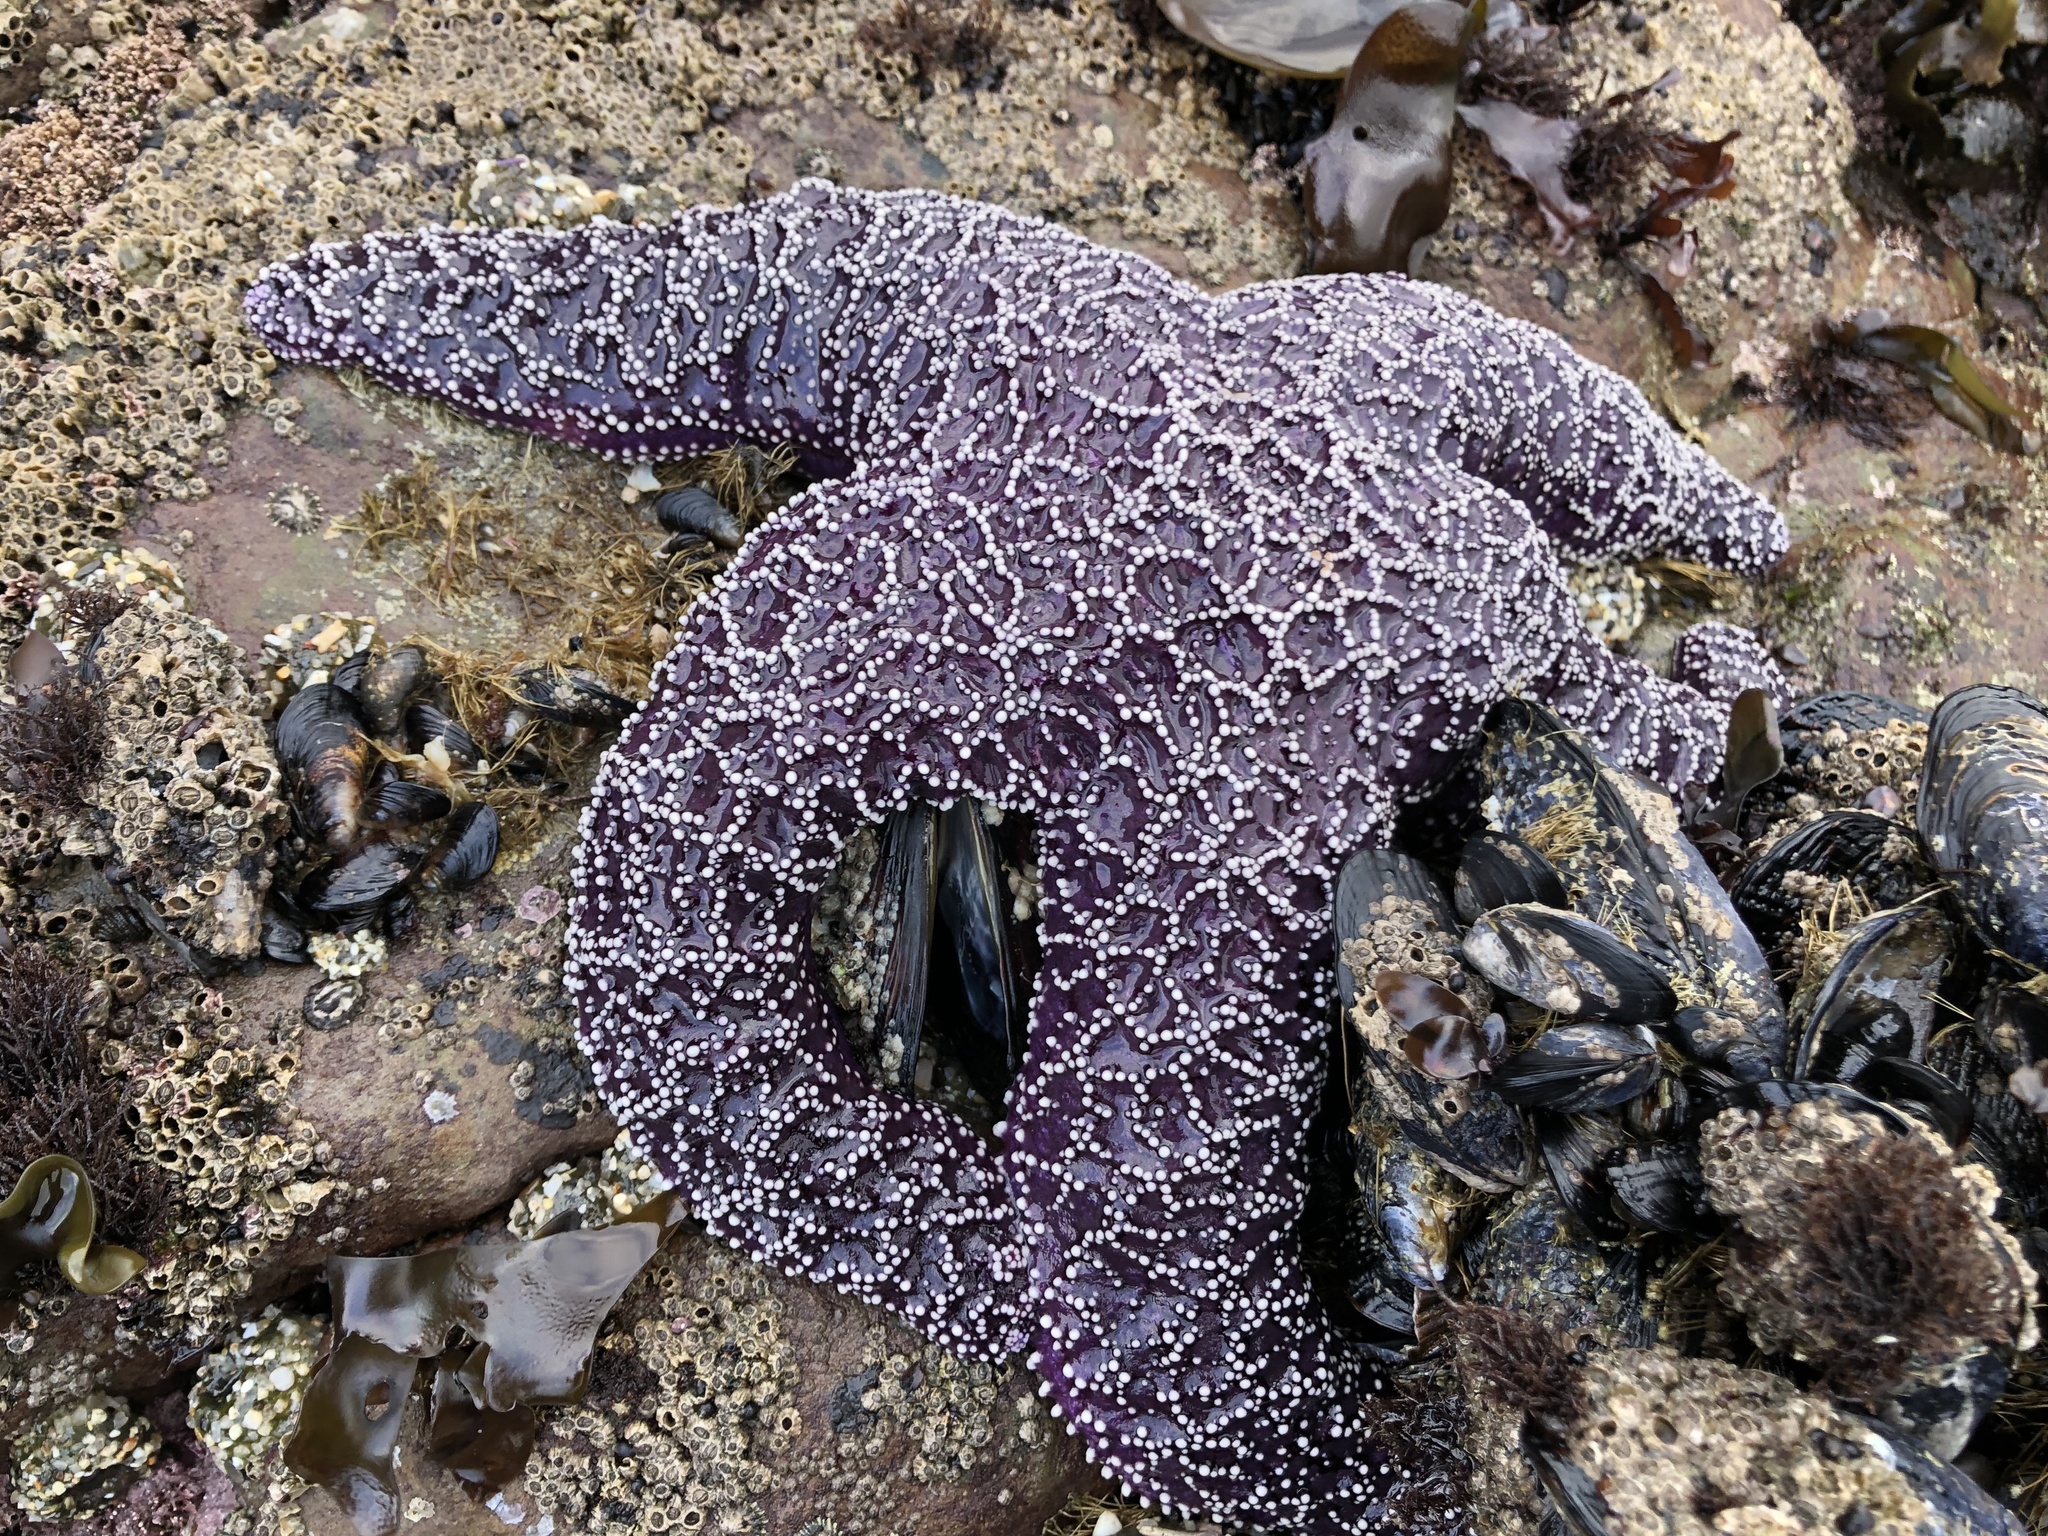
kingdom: Animalia
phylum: Echinodermata
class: Asteroidea
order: Forcipulatida
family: Asteriidae
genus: Pisaster
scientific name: Pisaster ochraceus
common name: Ochre stars
